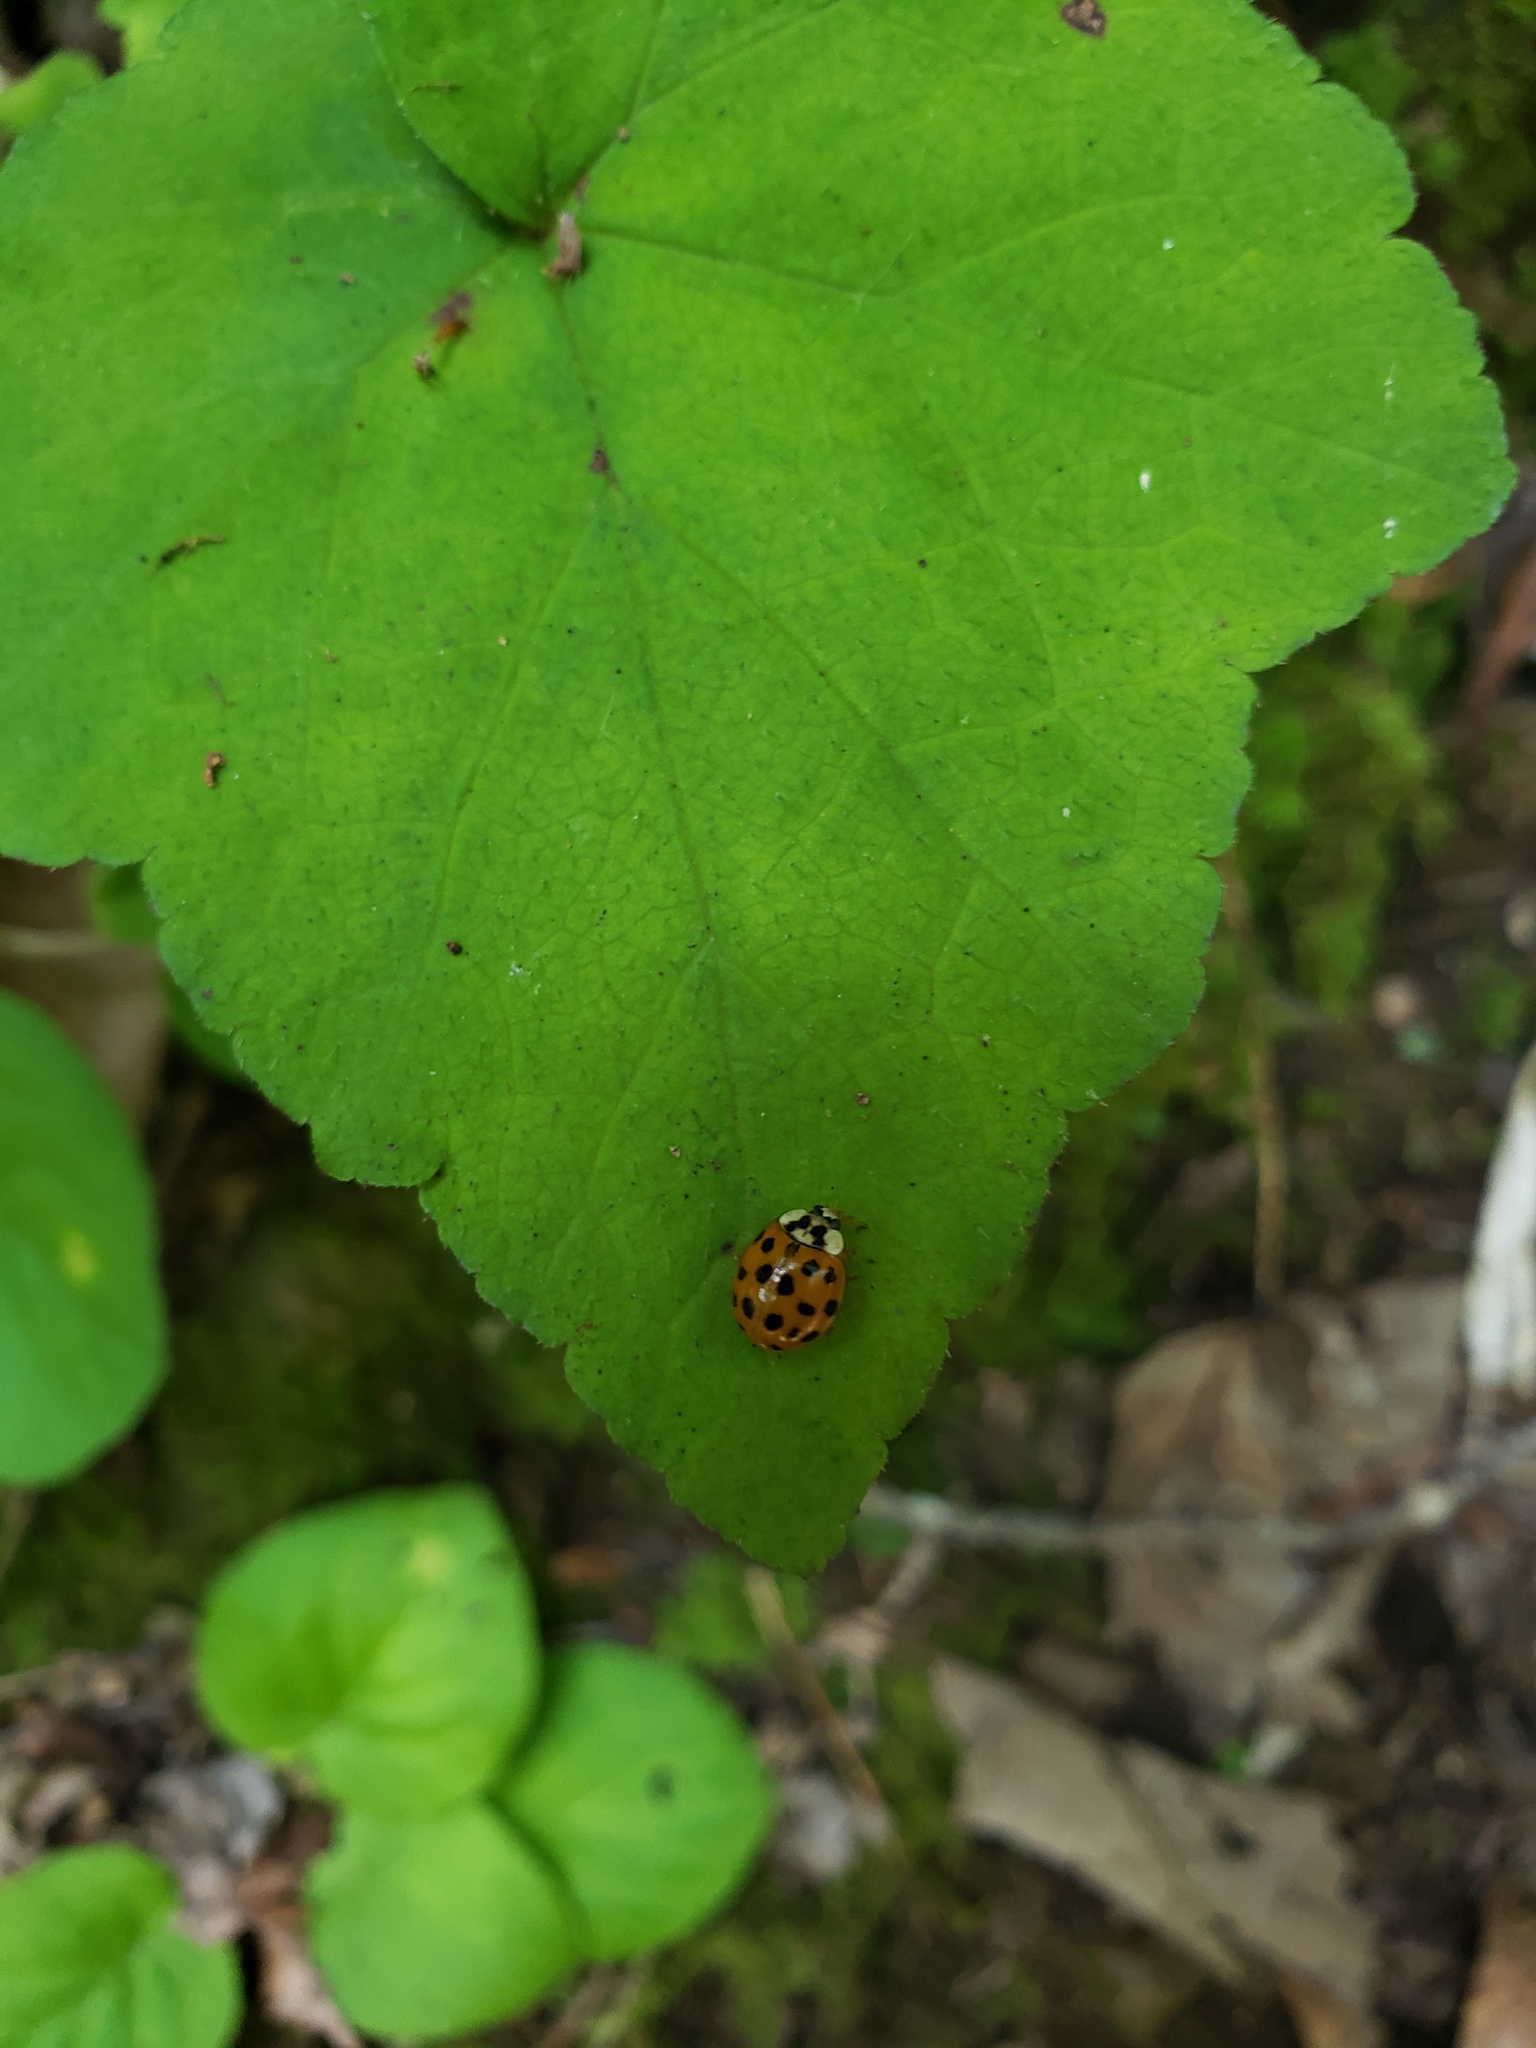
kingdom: Animalia
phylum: Arthropoda
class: Insecta
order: Coleoptera
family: Coccinellidae
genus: Harmonia
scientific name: Harmonia axyridis
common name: Harlequin ladybird
